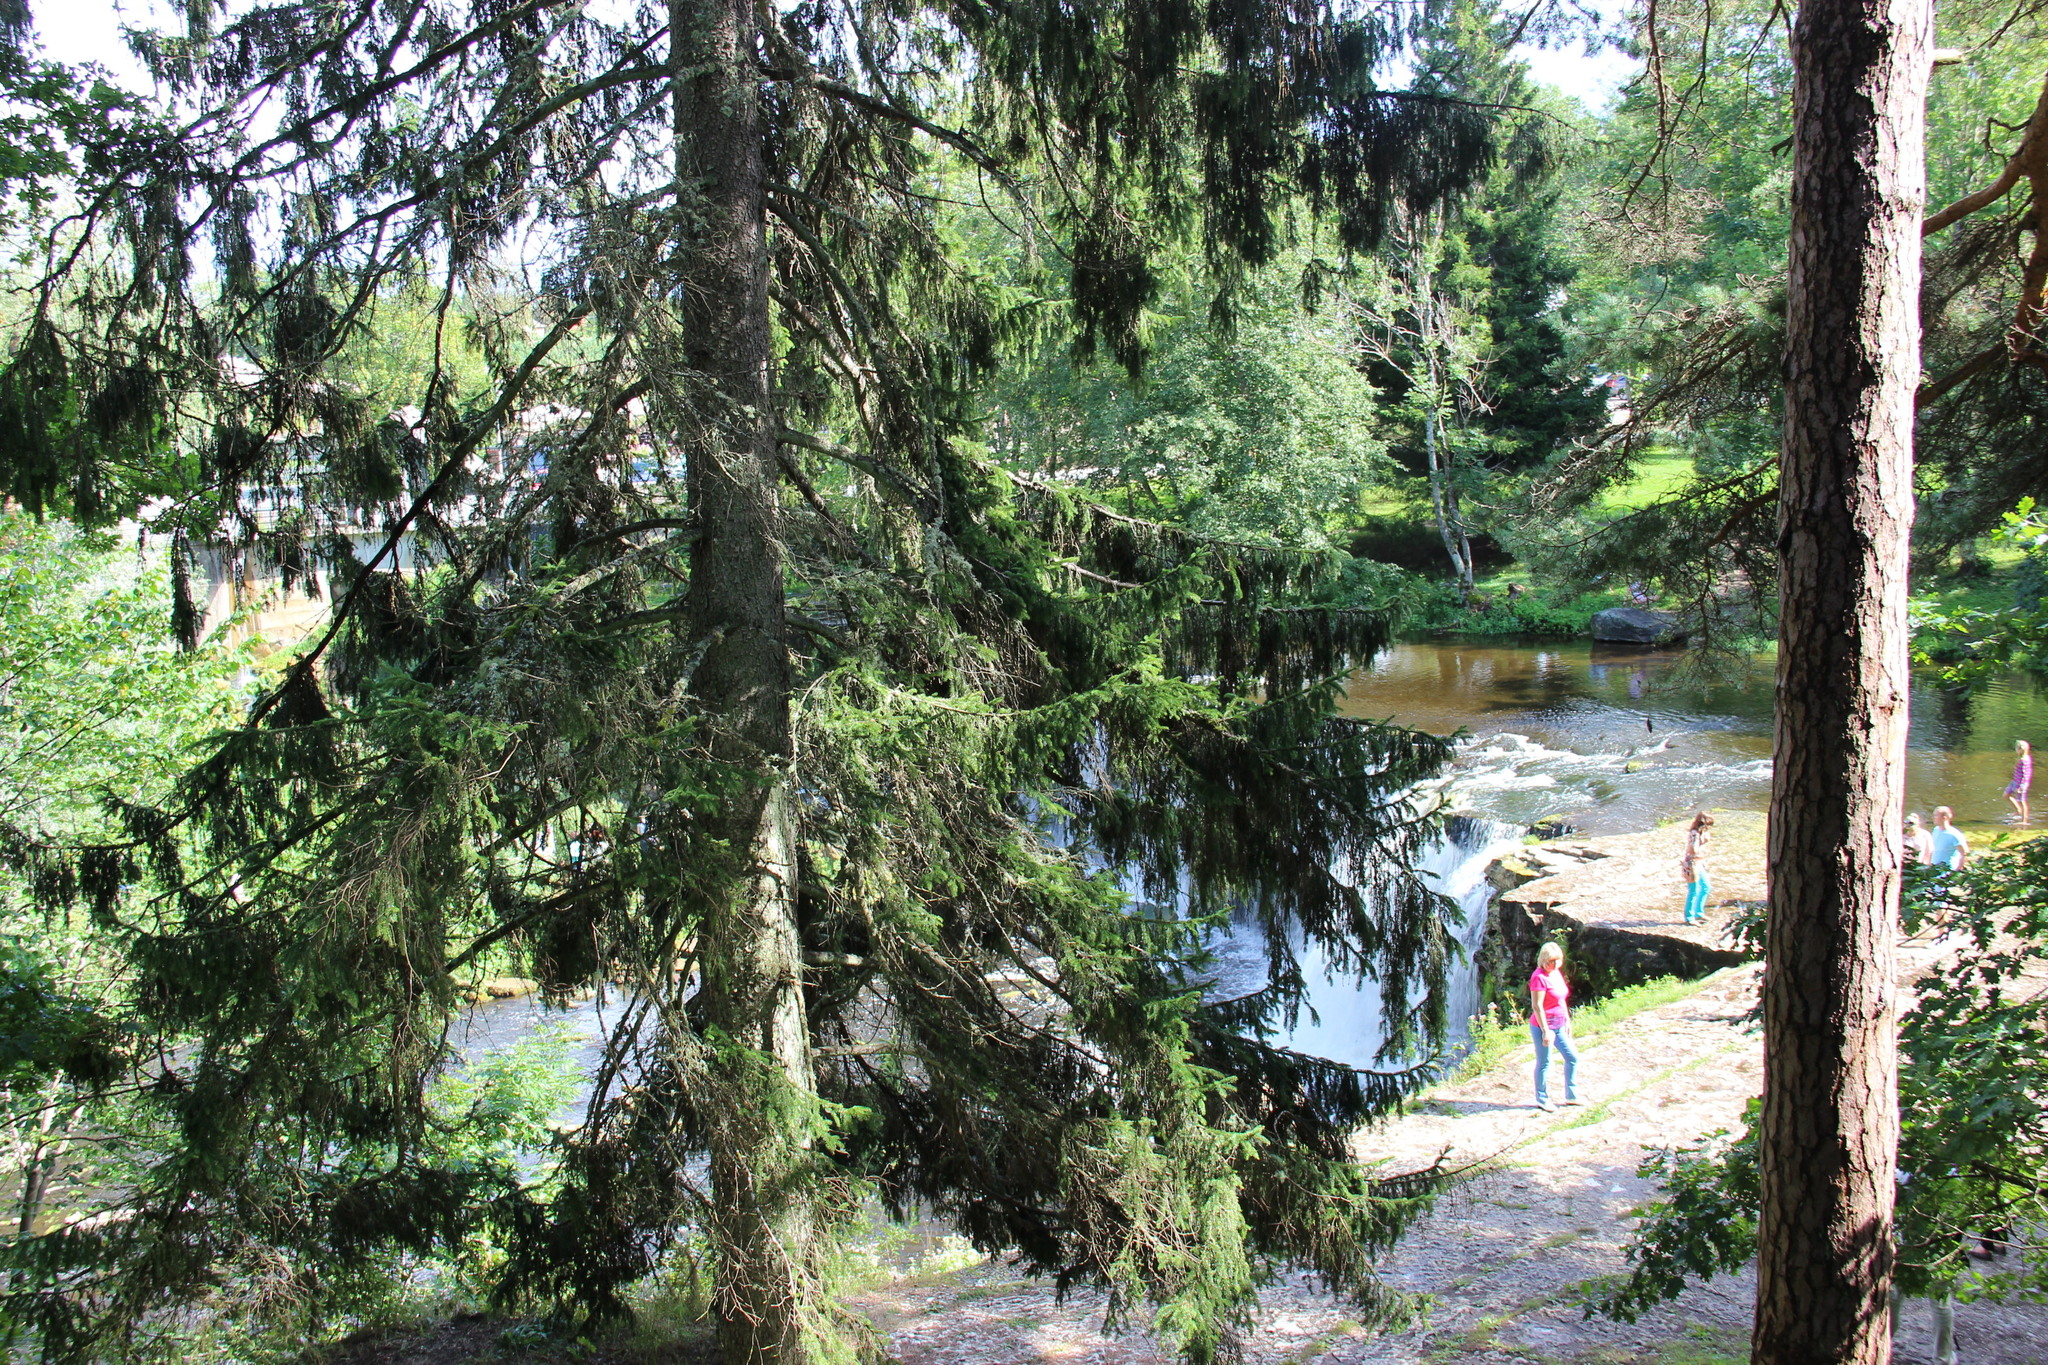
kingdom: Plantae
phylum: Tracheophyta
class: Pinopsida
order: Pinales
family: Pinaceae
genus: Picea
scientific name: Picea abies
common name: Norway spruce
